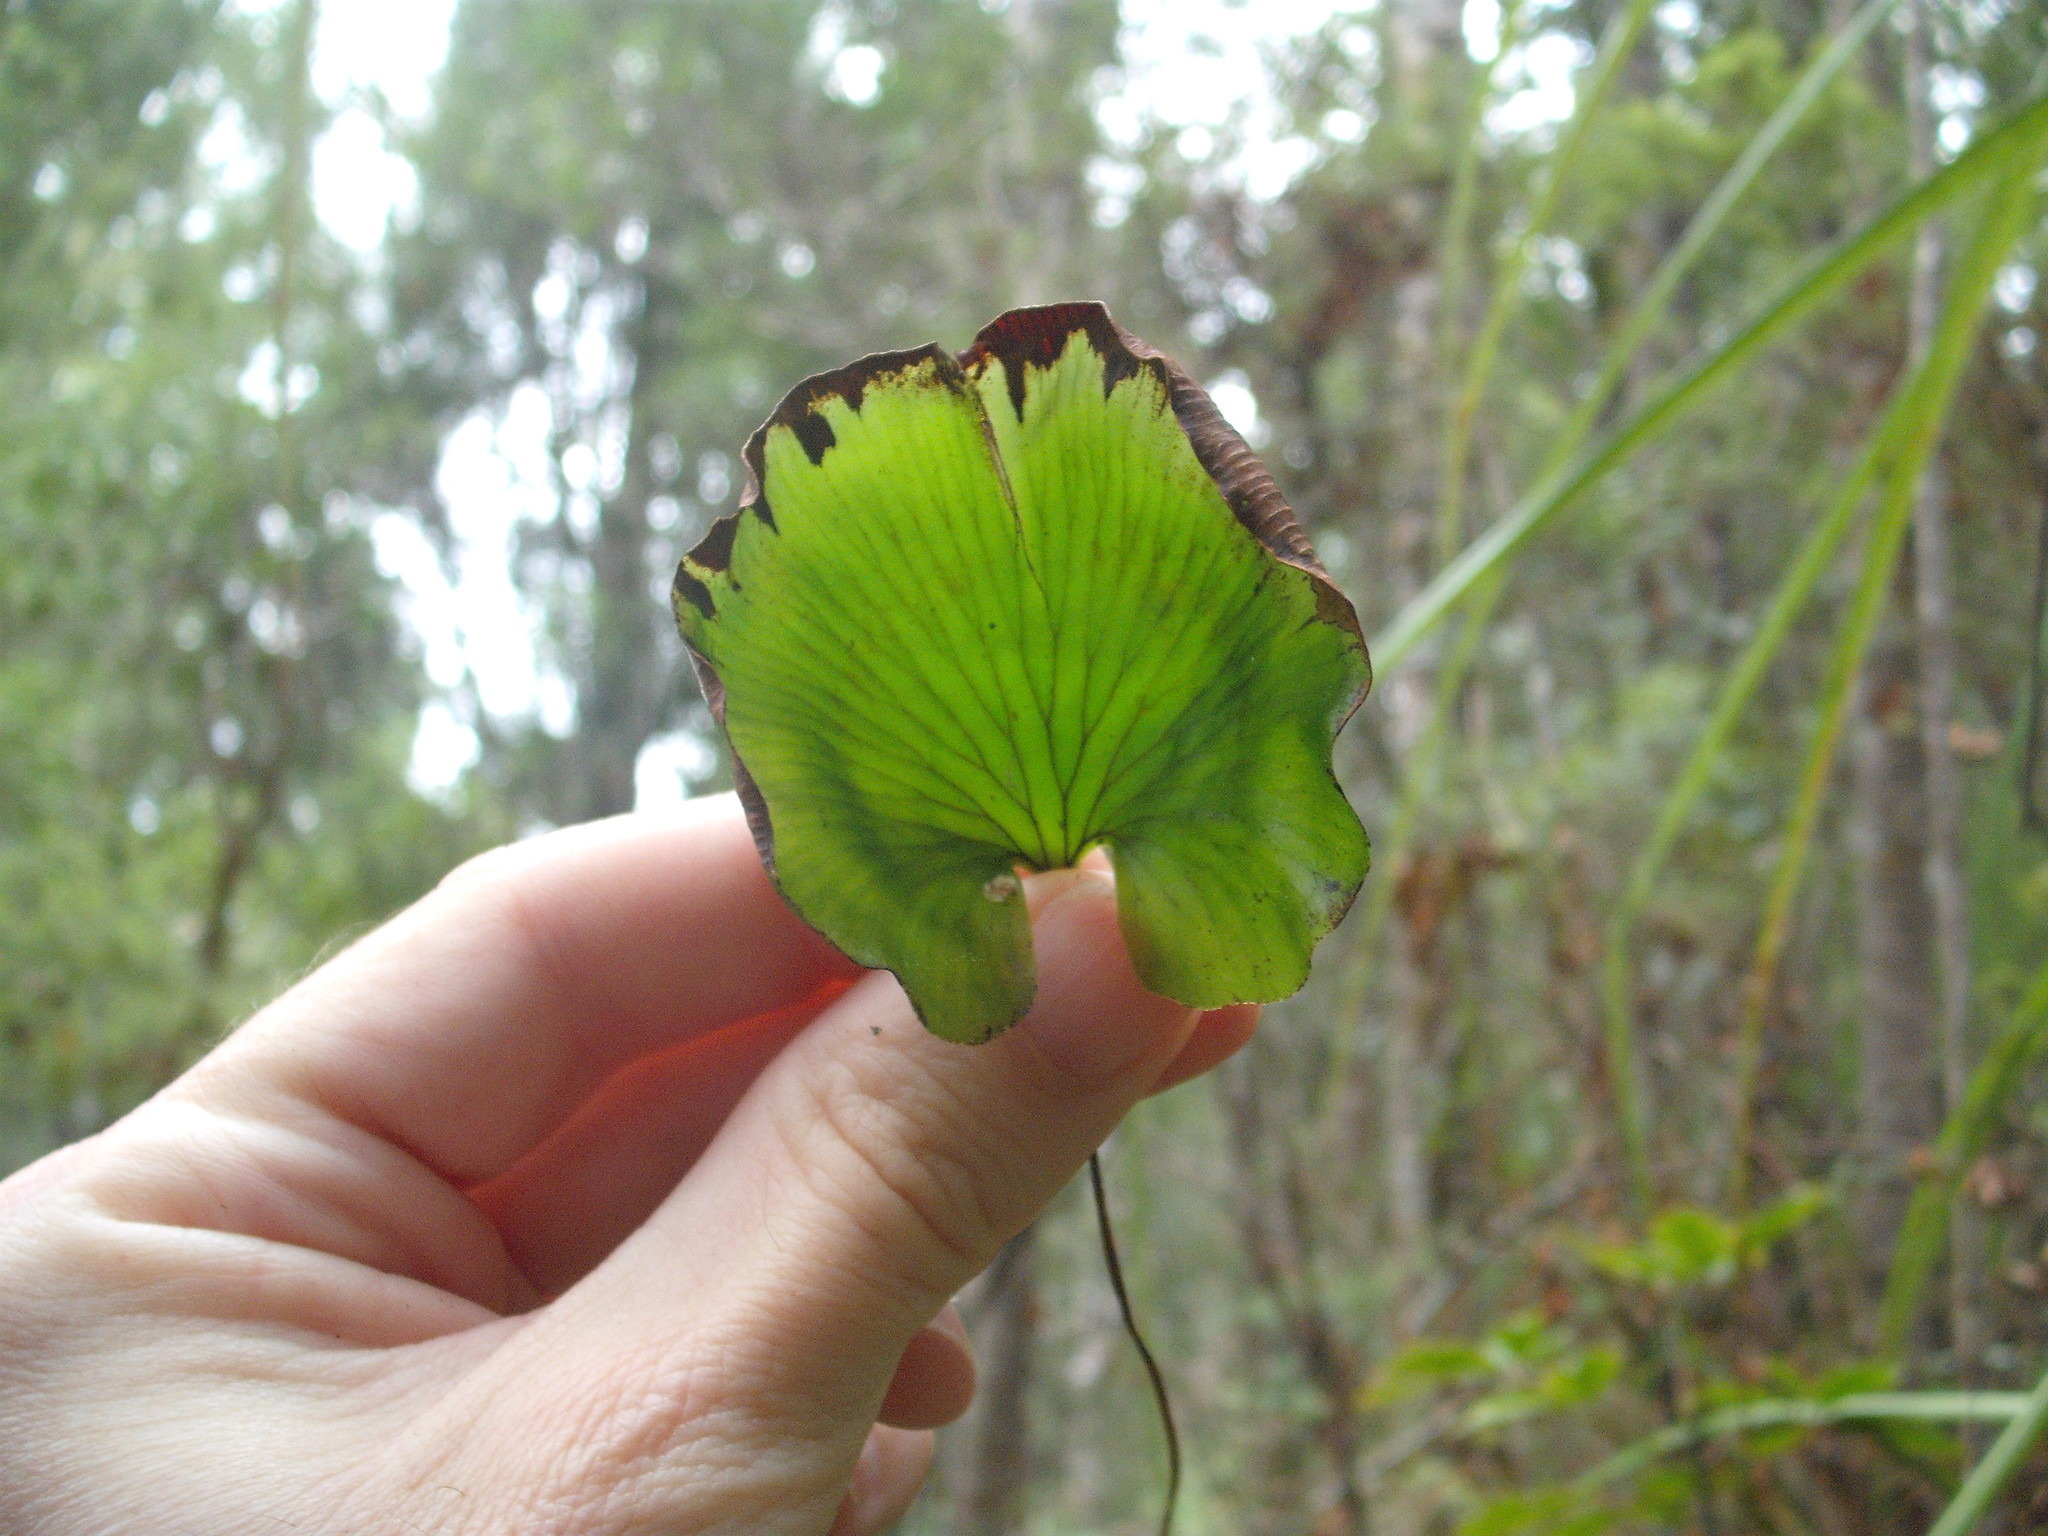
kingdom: Plantae
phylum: Tracheophyta
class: Polypodiopsida
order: Hymenophyllales
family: Hymenophyllaceae
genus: Hymenophyllum
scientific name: Hymenophyllum nephrophyllum
